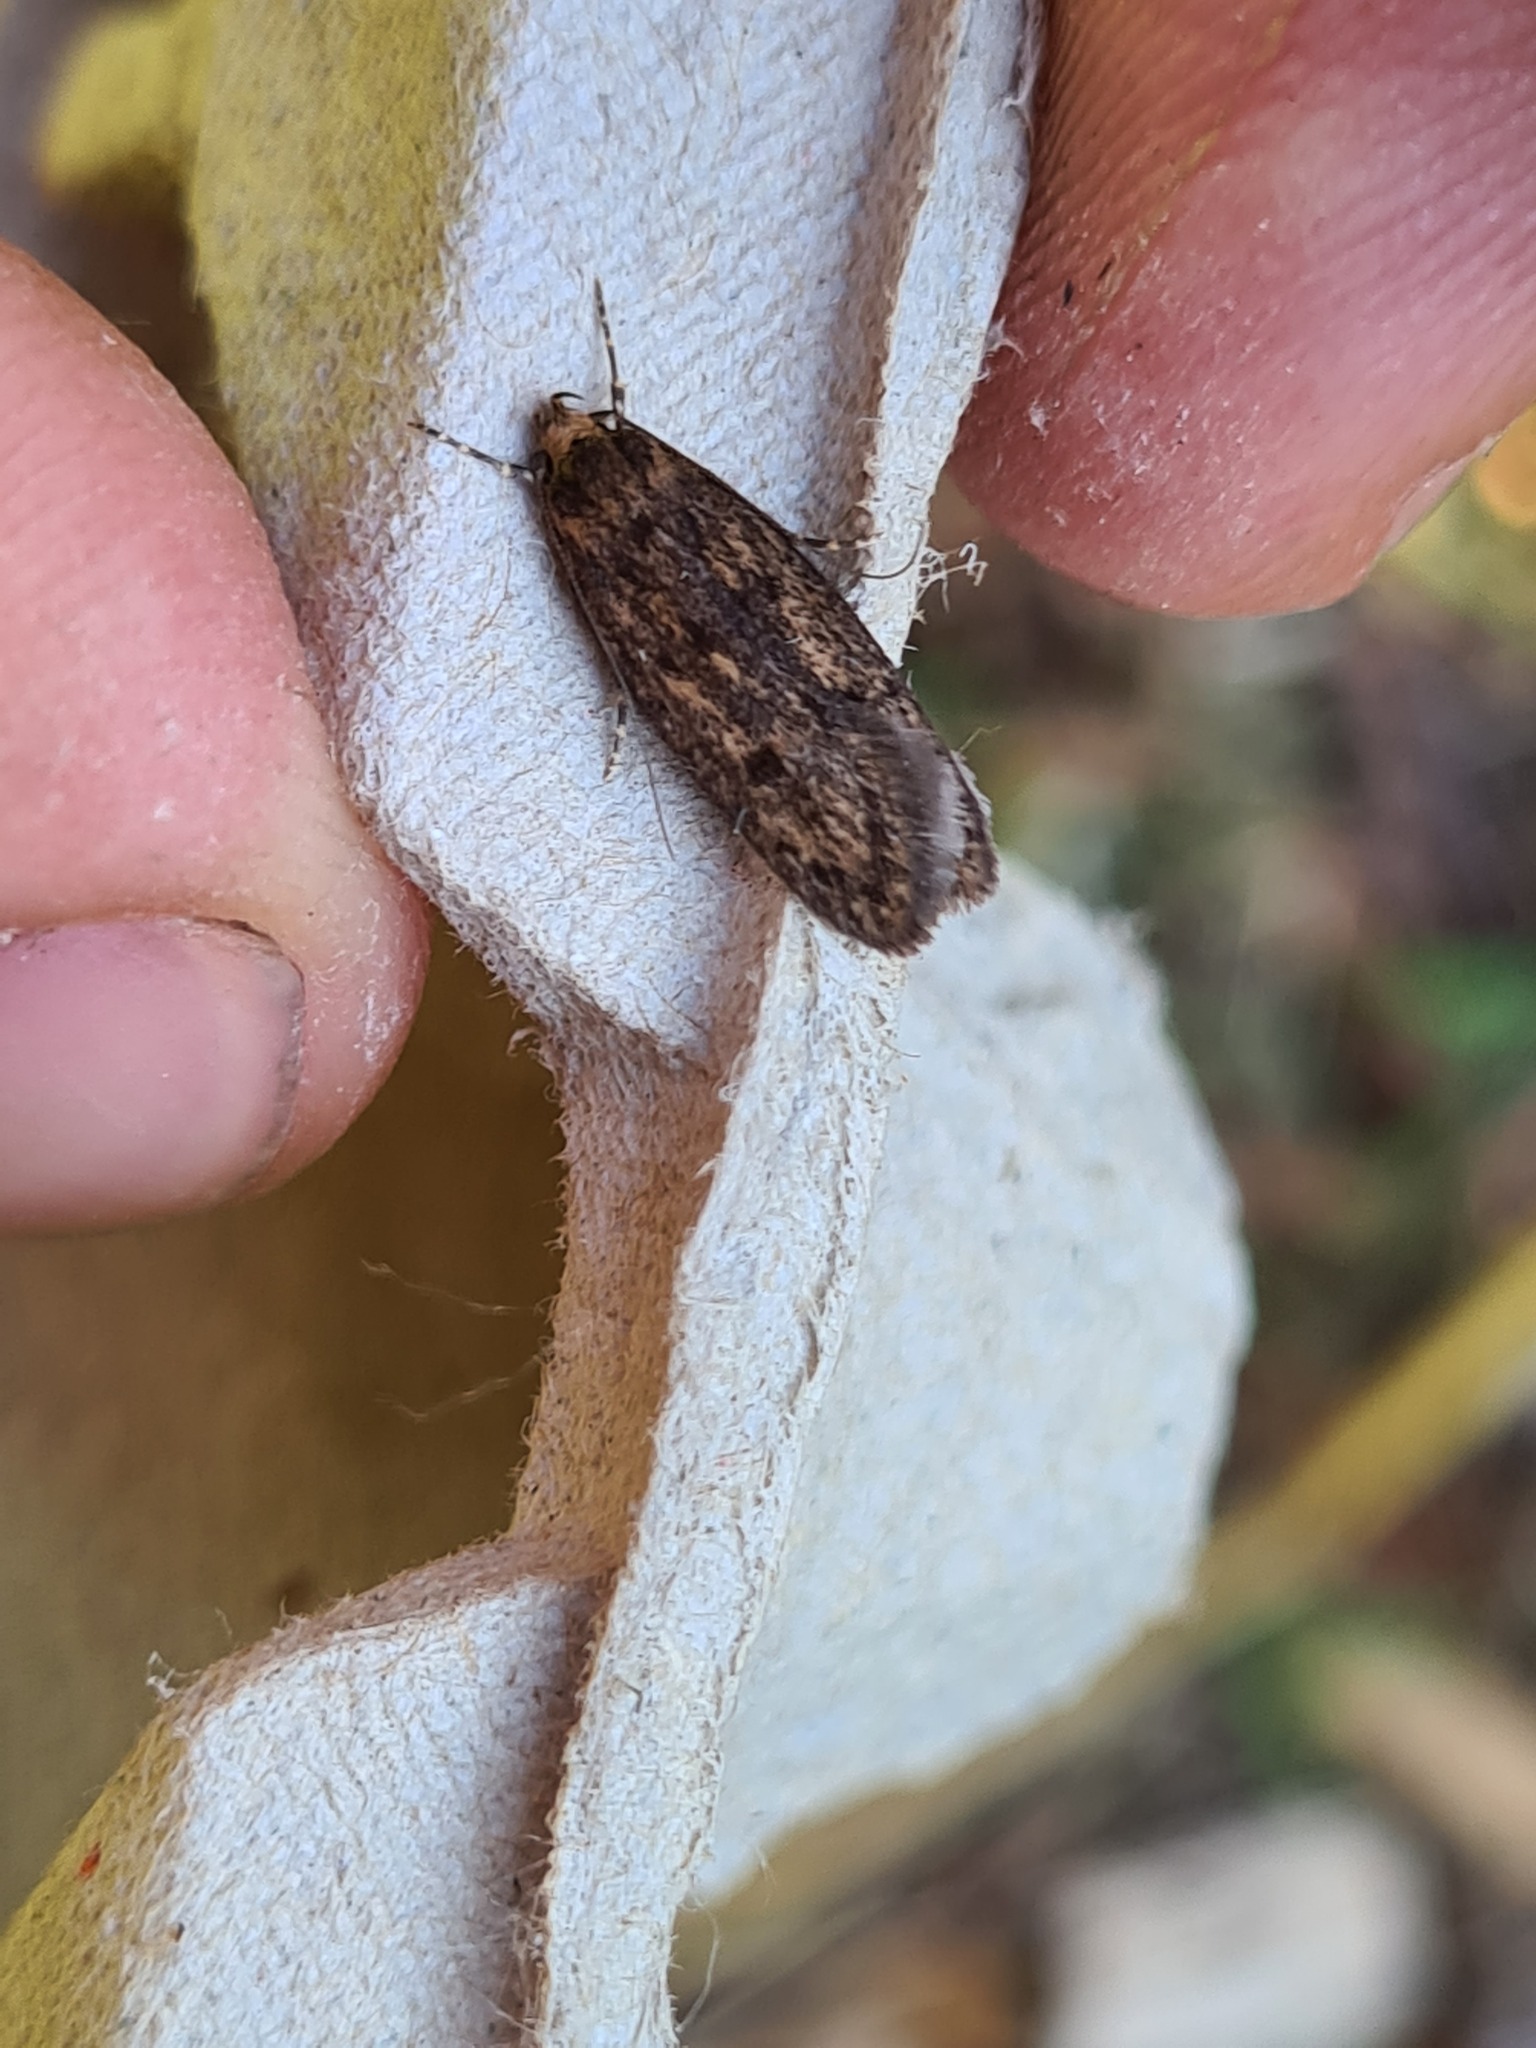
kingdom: Animalia
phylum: Arthropoda
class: Insecta
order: Lepidoptera
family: Oecophoridae
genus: Hofmannophila
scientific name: Hofmannophila pseudospretella
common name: Brown house moth
